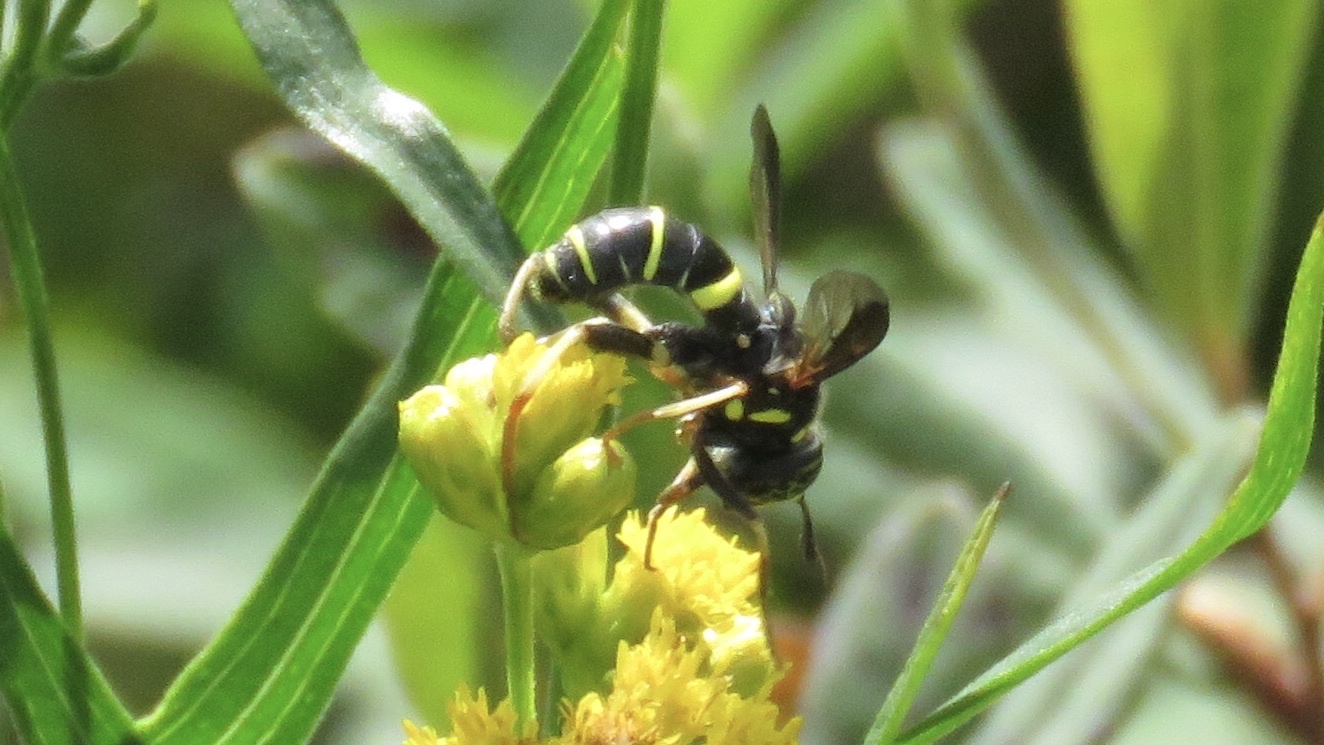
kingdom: Animalia
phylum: Arthropoda
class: Insecta
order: Diptera
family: Syrphidae
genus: Spilomyia
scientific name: Spilomyia sayi
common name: Four-lined hornet fly
